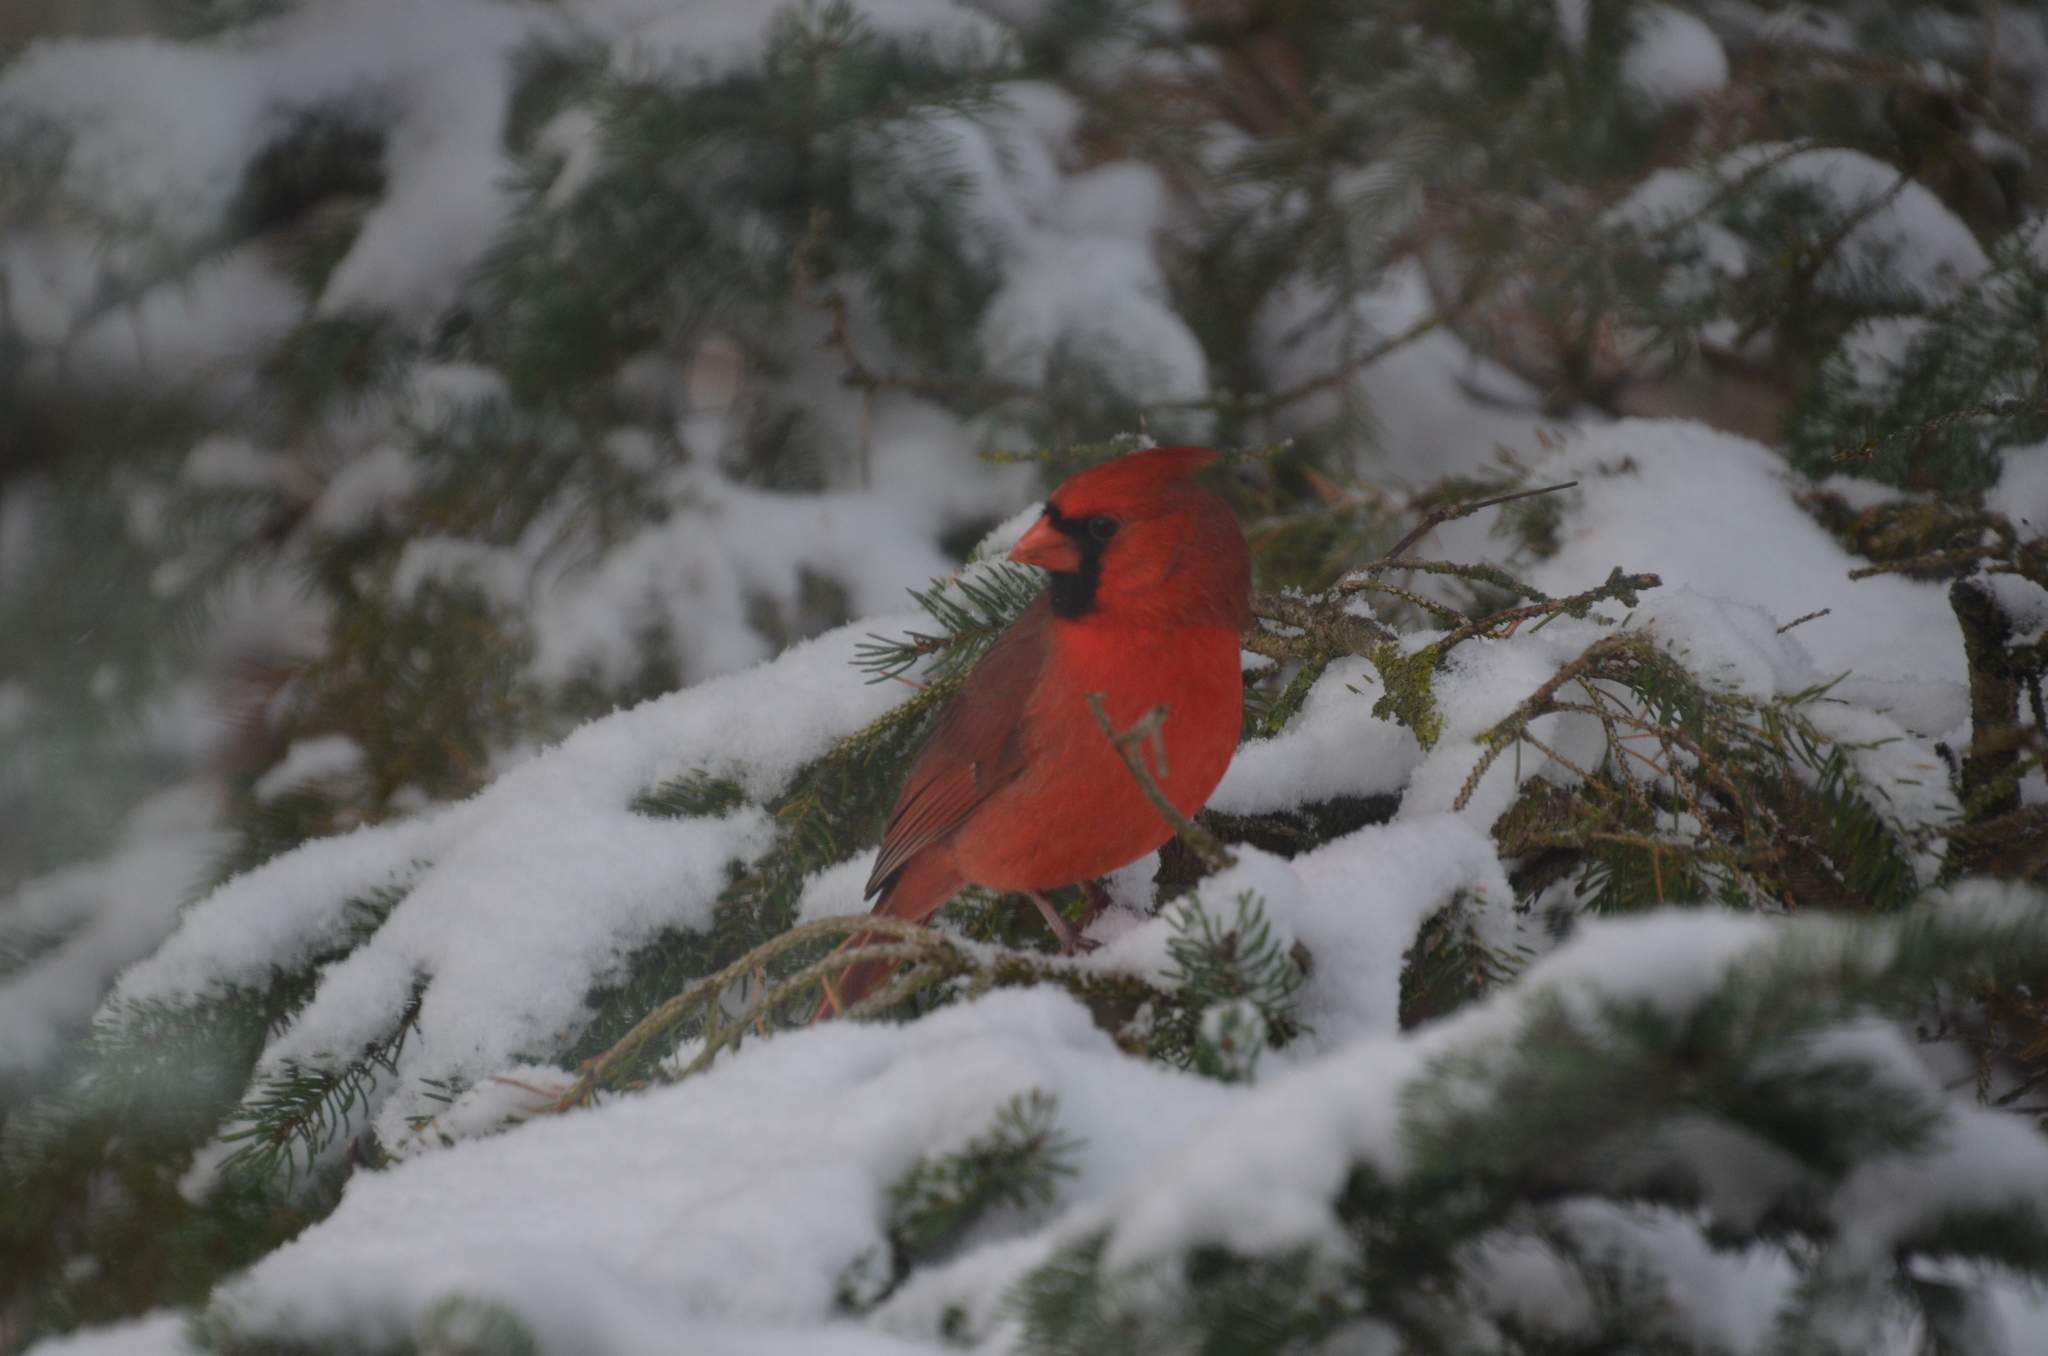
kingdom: Animalia
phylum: Chordata
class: Aves
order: Passeriformes
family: Cardinalidae
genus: Cardinalis
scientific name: Cardinalis cardinalis
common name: Northern cardinal
